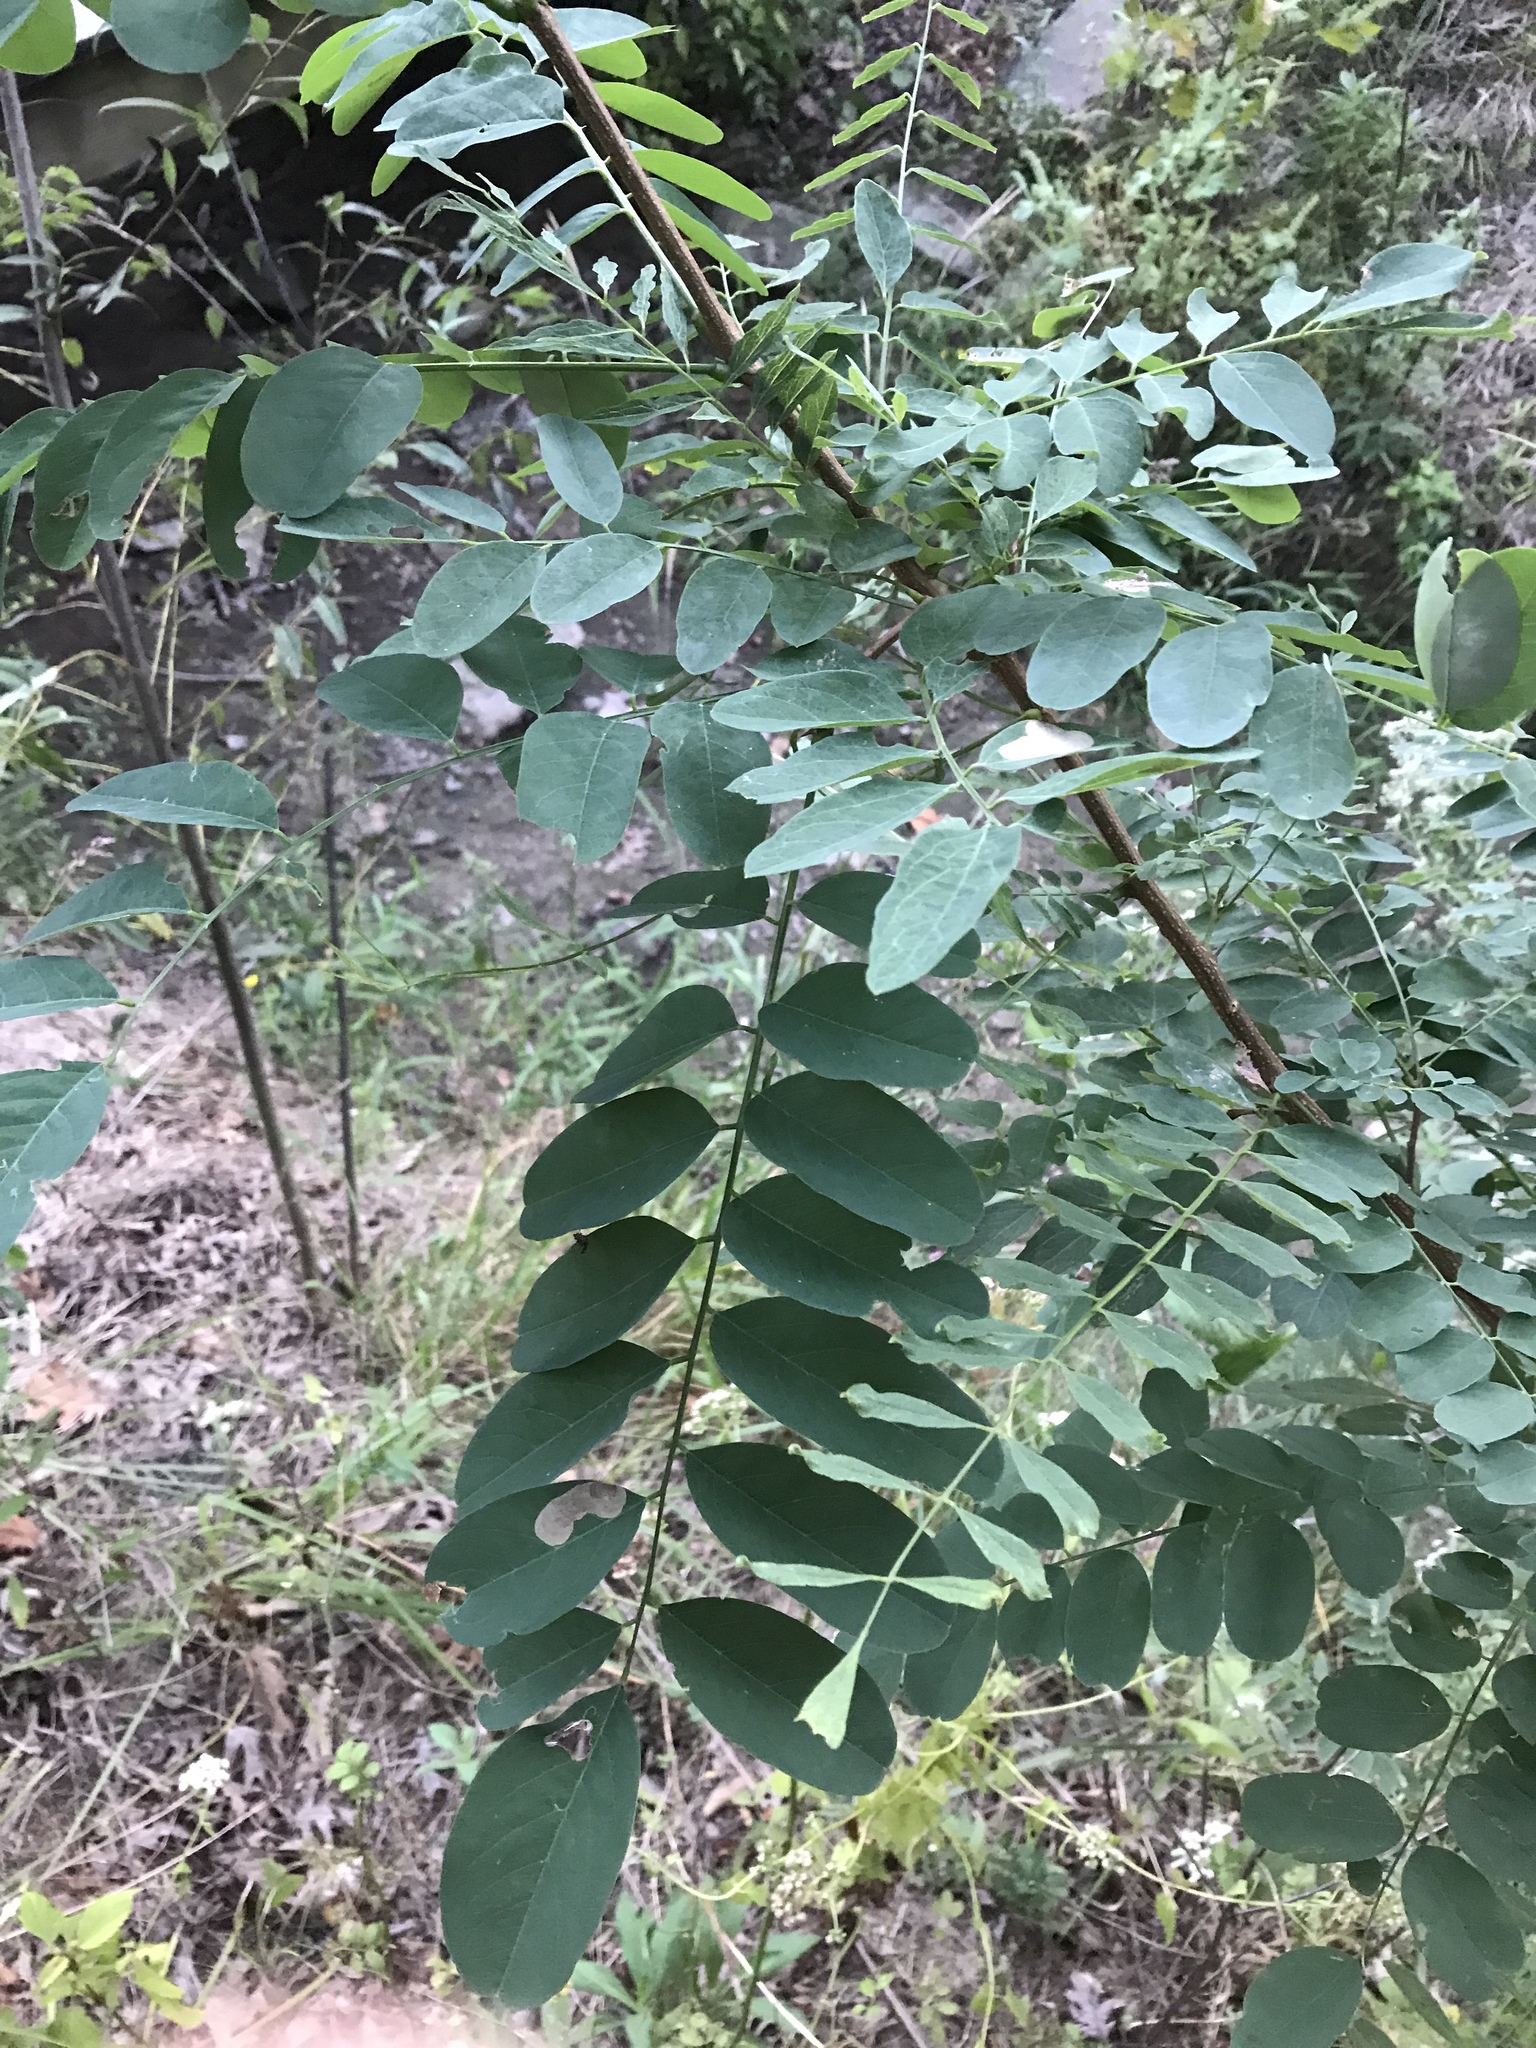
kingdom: Plantae
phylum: Tracheophyta
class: Magnoliopsida
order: Fabales
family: Fabaceae
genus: Robinia
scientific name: Robinia pseudoacacia
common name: Black locust
